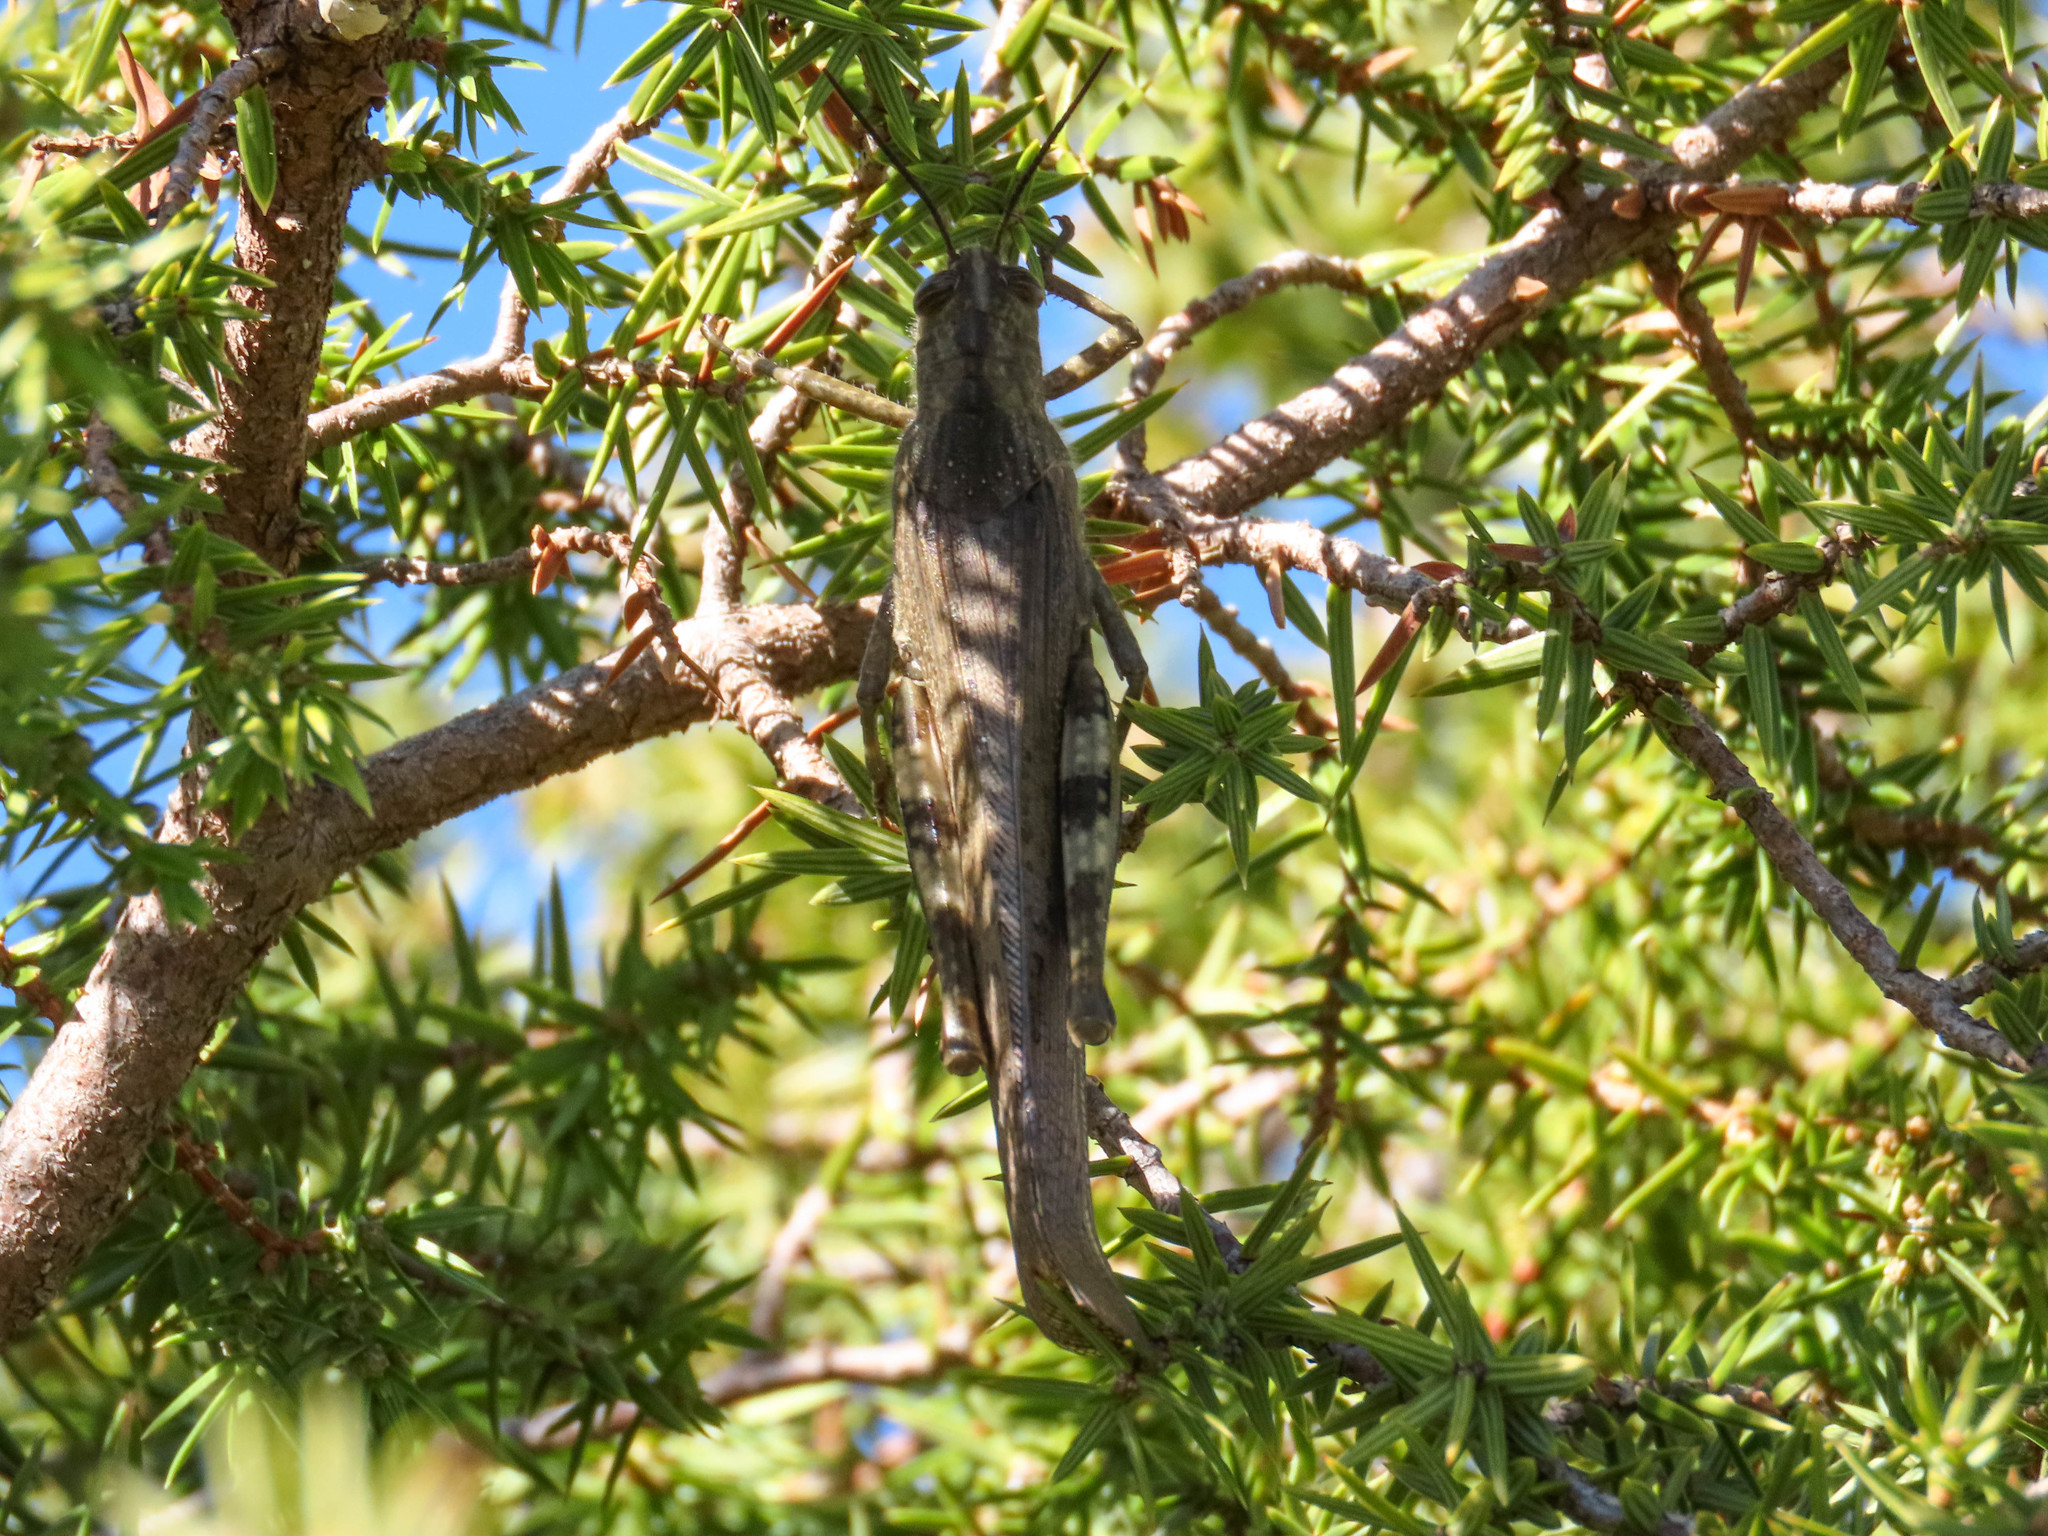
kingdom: Animalia
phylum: Arthropoda
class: Insecta
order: Orthoptera
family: Acrididae
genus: Anacridium
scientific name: Anacridium aegyptium
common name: Egyptian grasshopper
